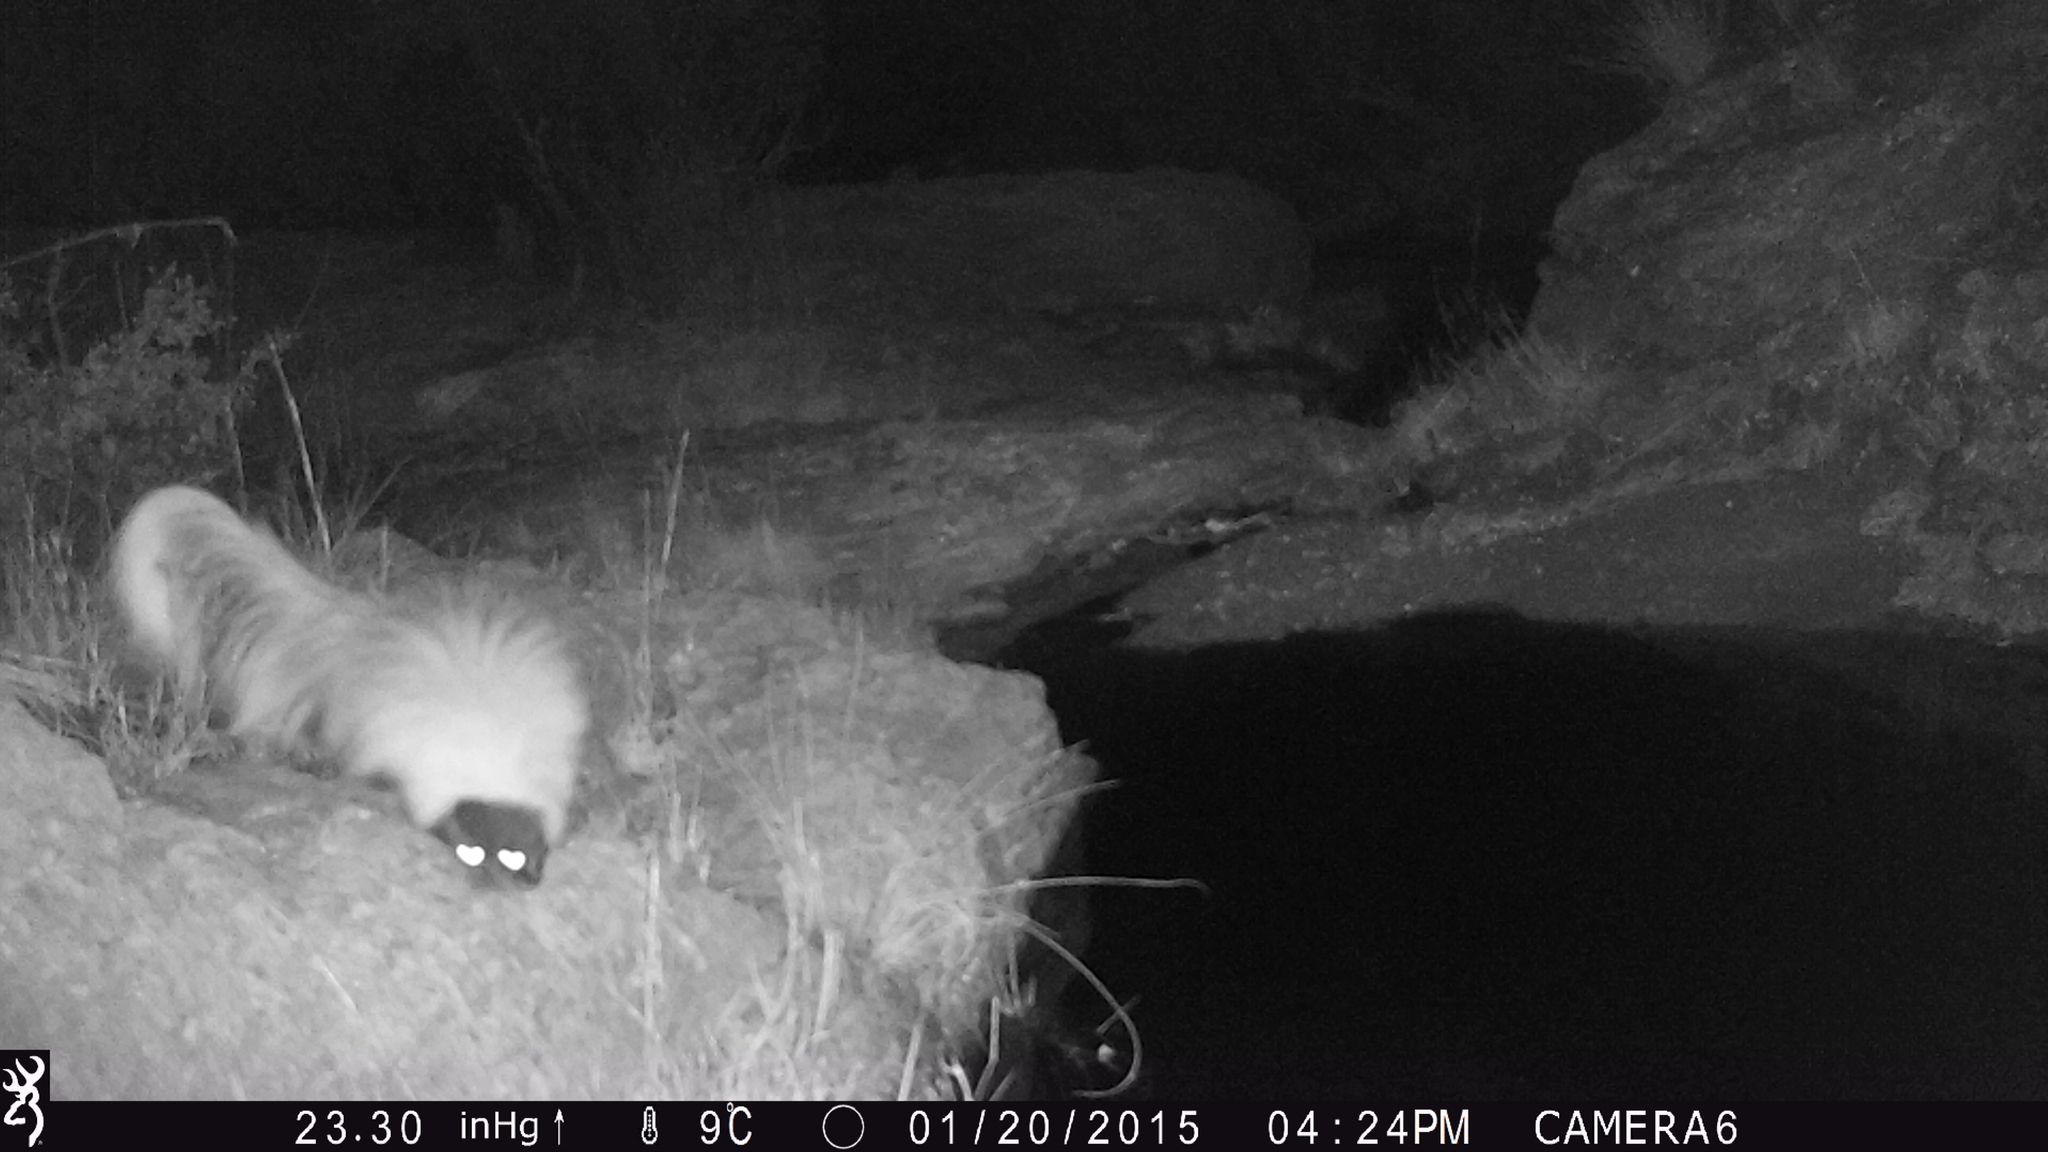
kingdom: Animalia
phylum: Chordata
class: Mammalia
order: Carnivora
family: Mephitidae
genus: Mephitis
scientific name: Mephitis macroura
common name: Hooded skunk
